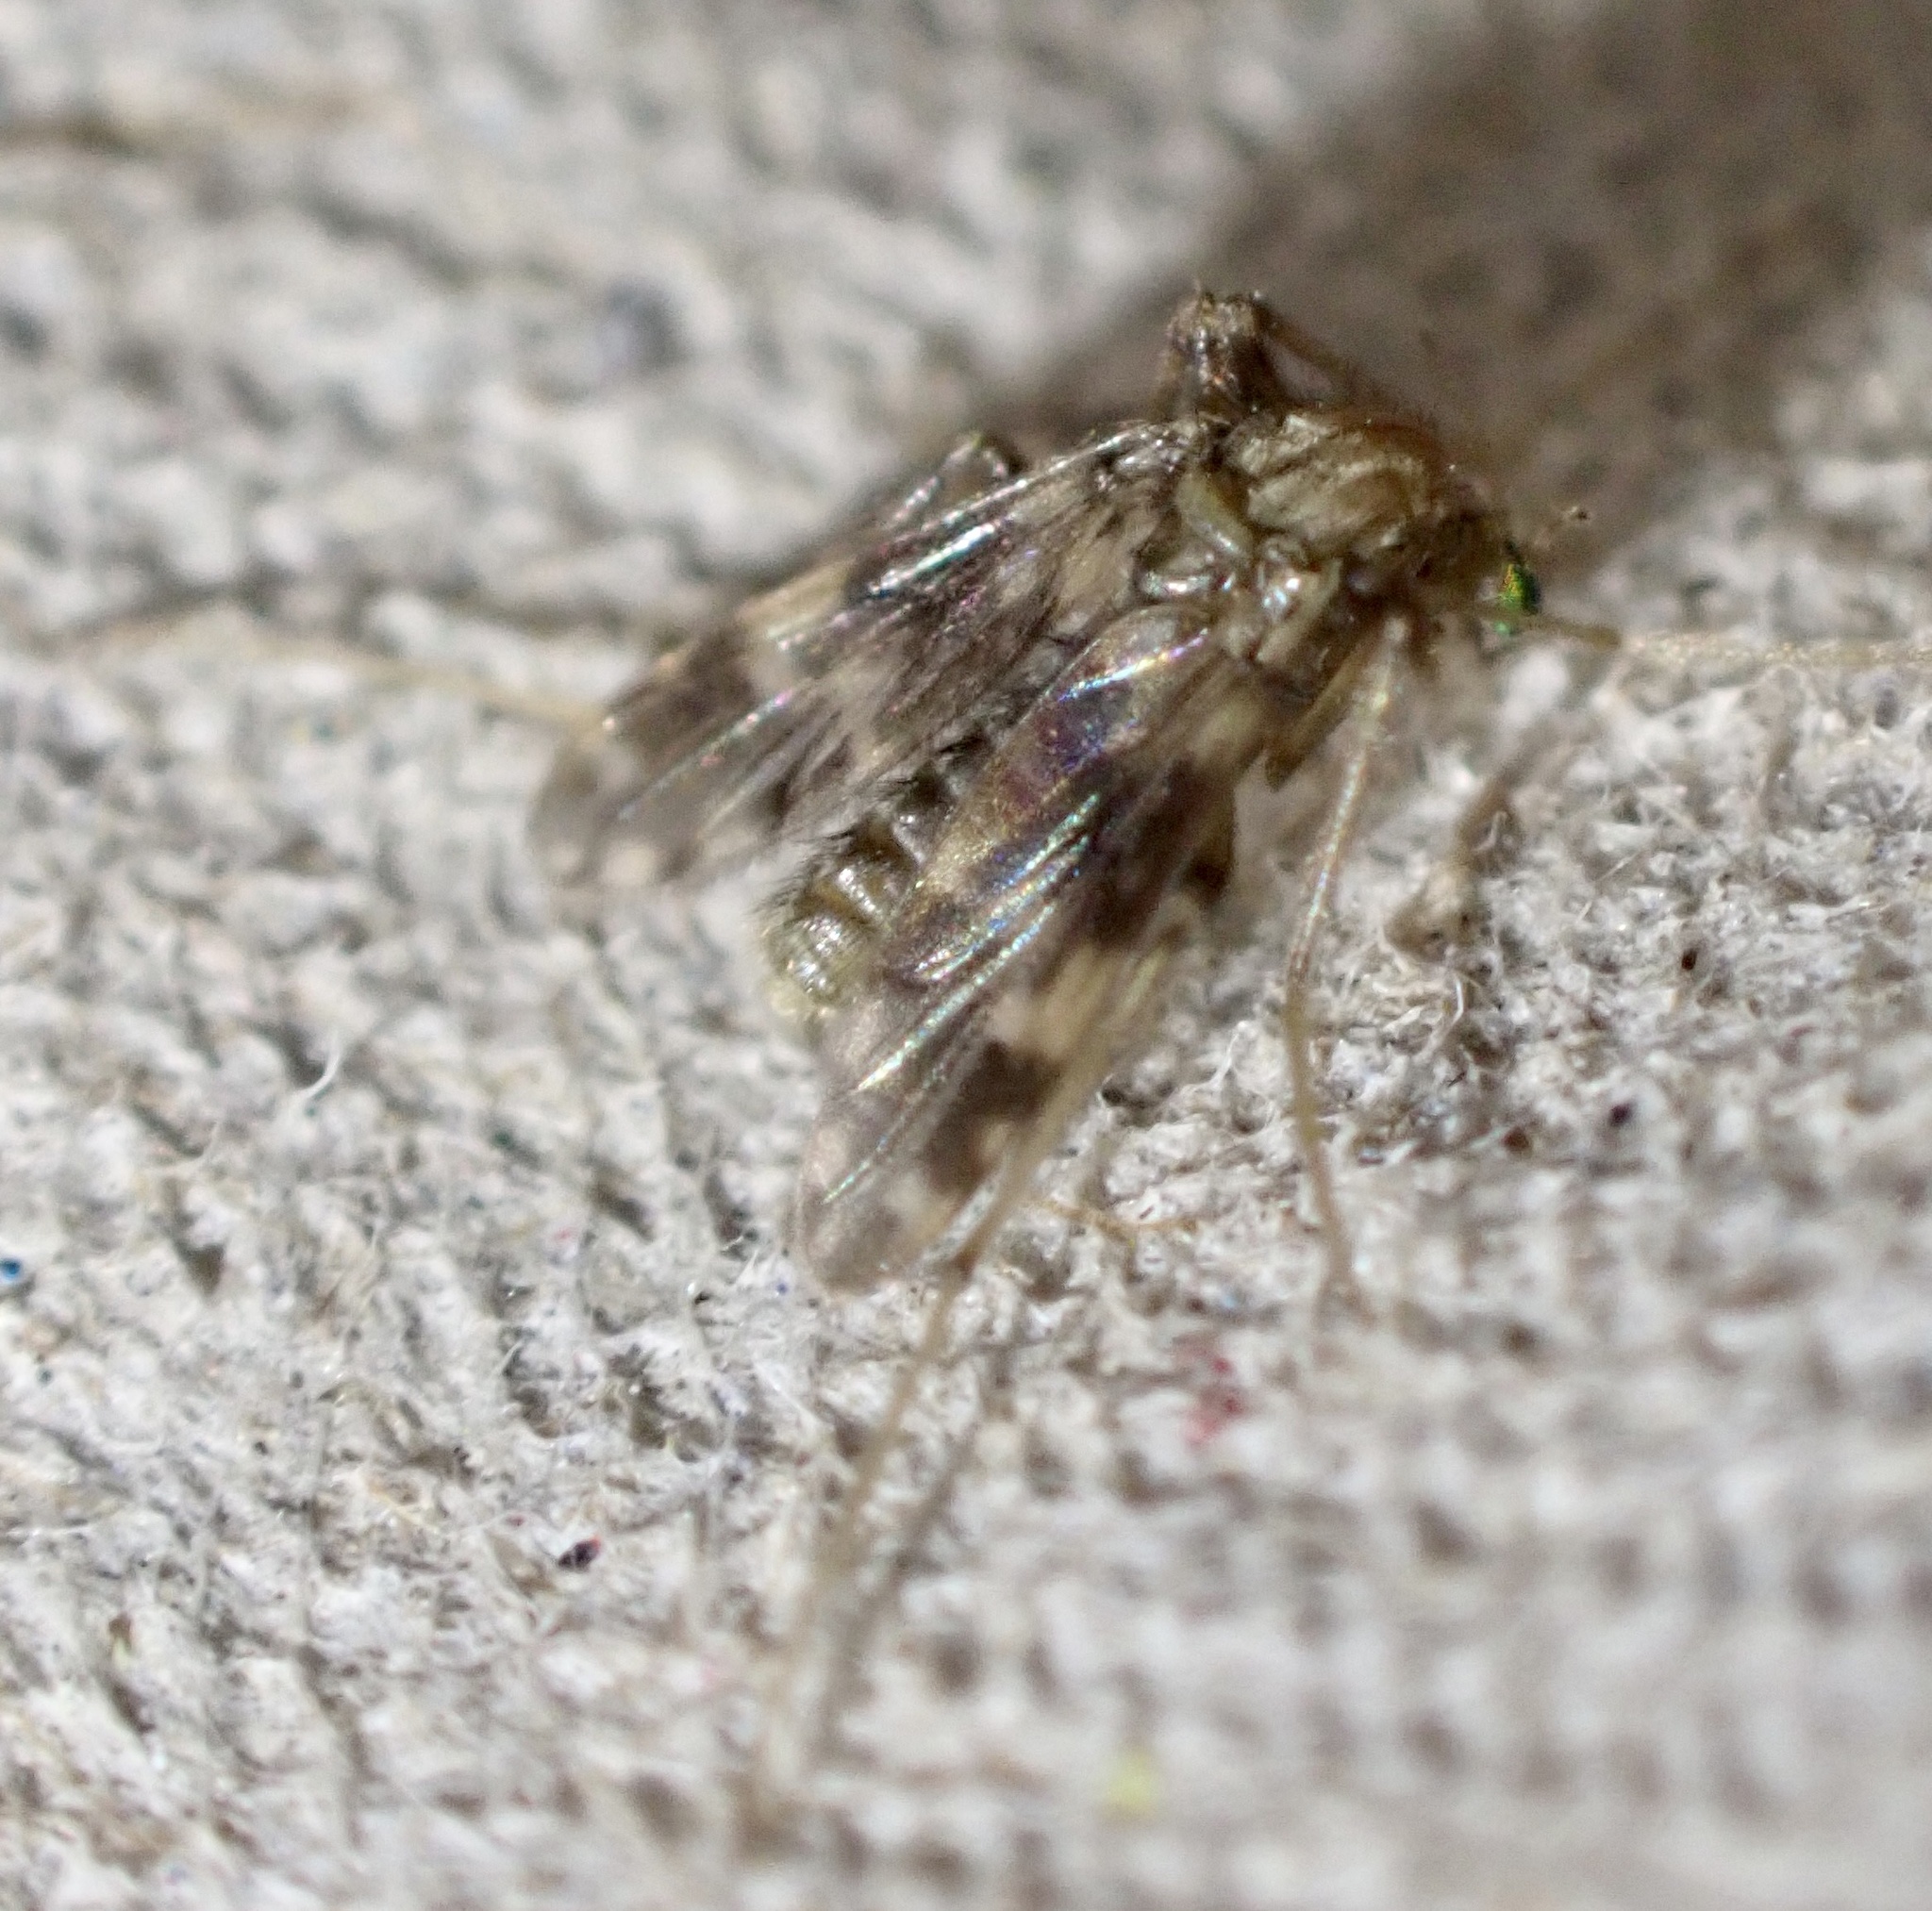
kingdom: Animalia
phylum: Arthropoda
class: Insecta
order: Diptera
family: Chironomidae
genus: Psectrotanypus
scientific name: Psectrotanypus varius
